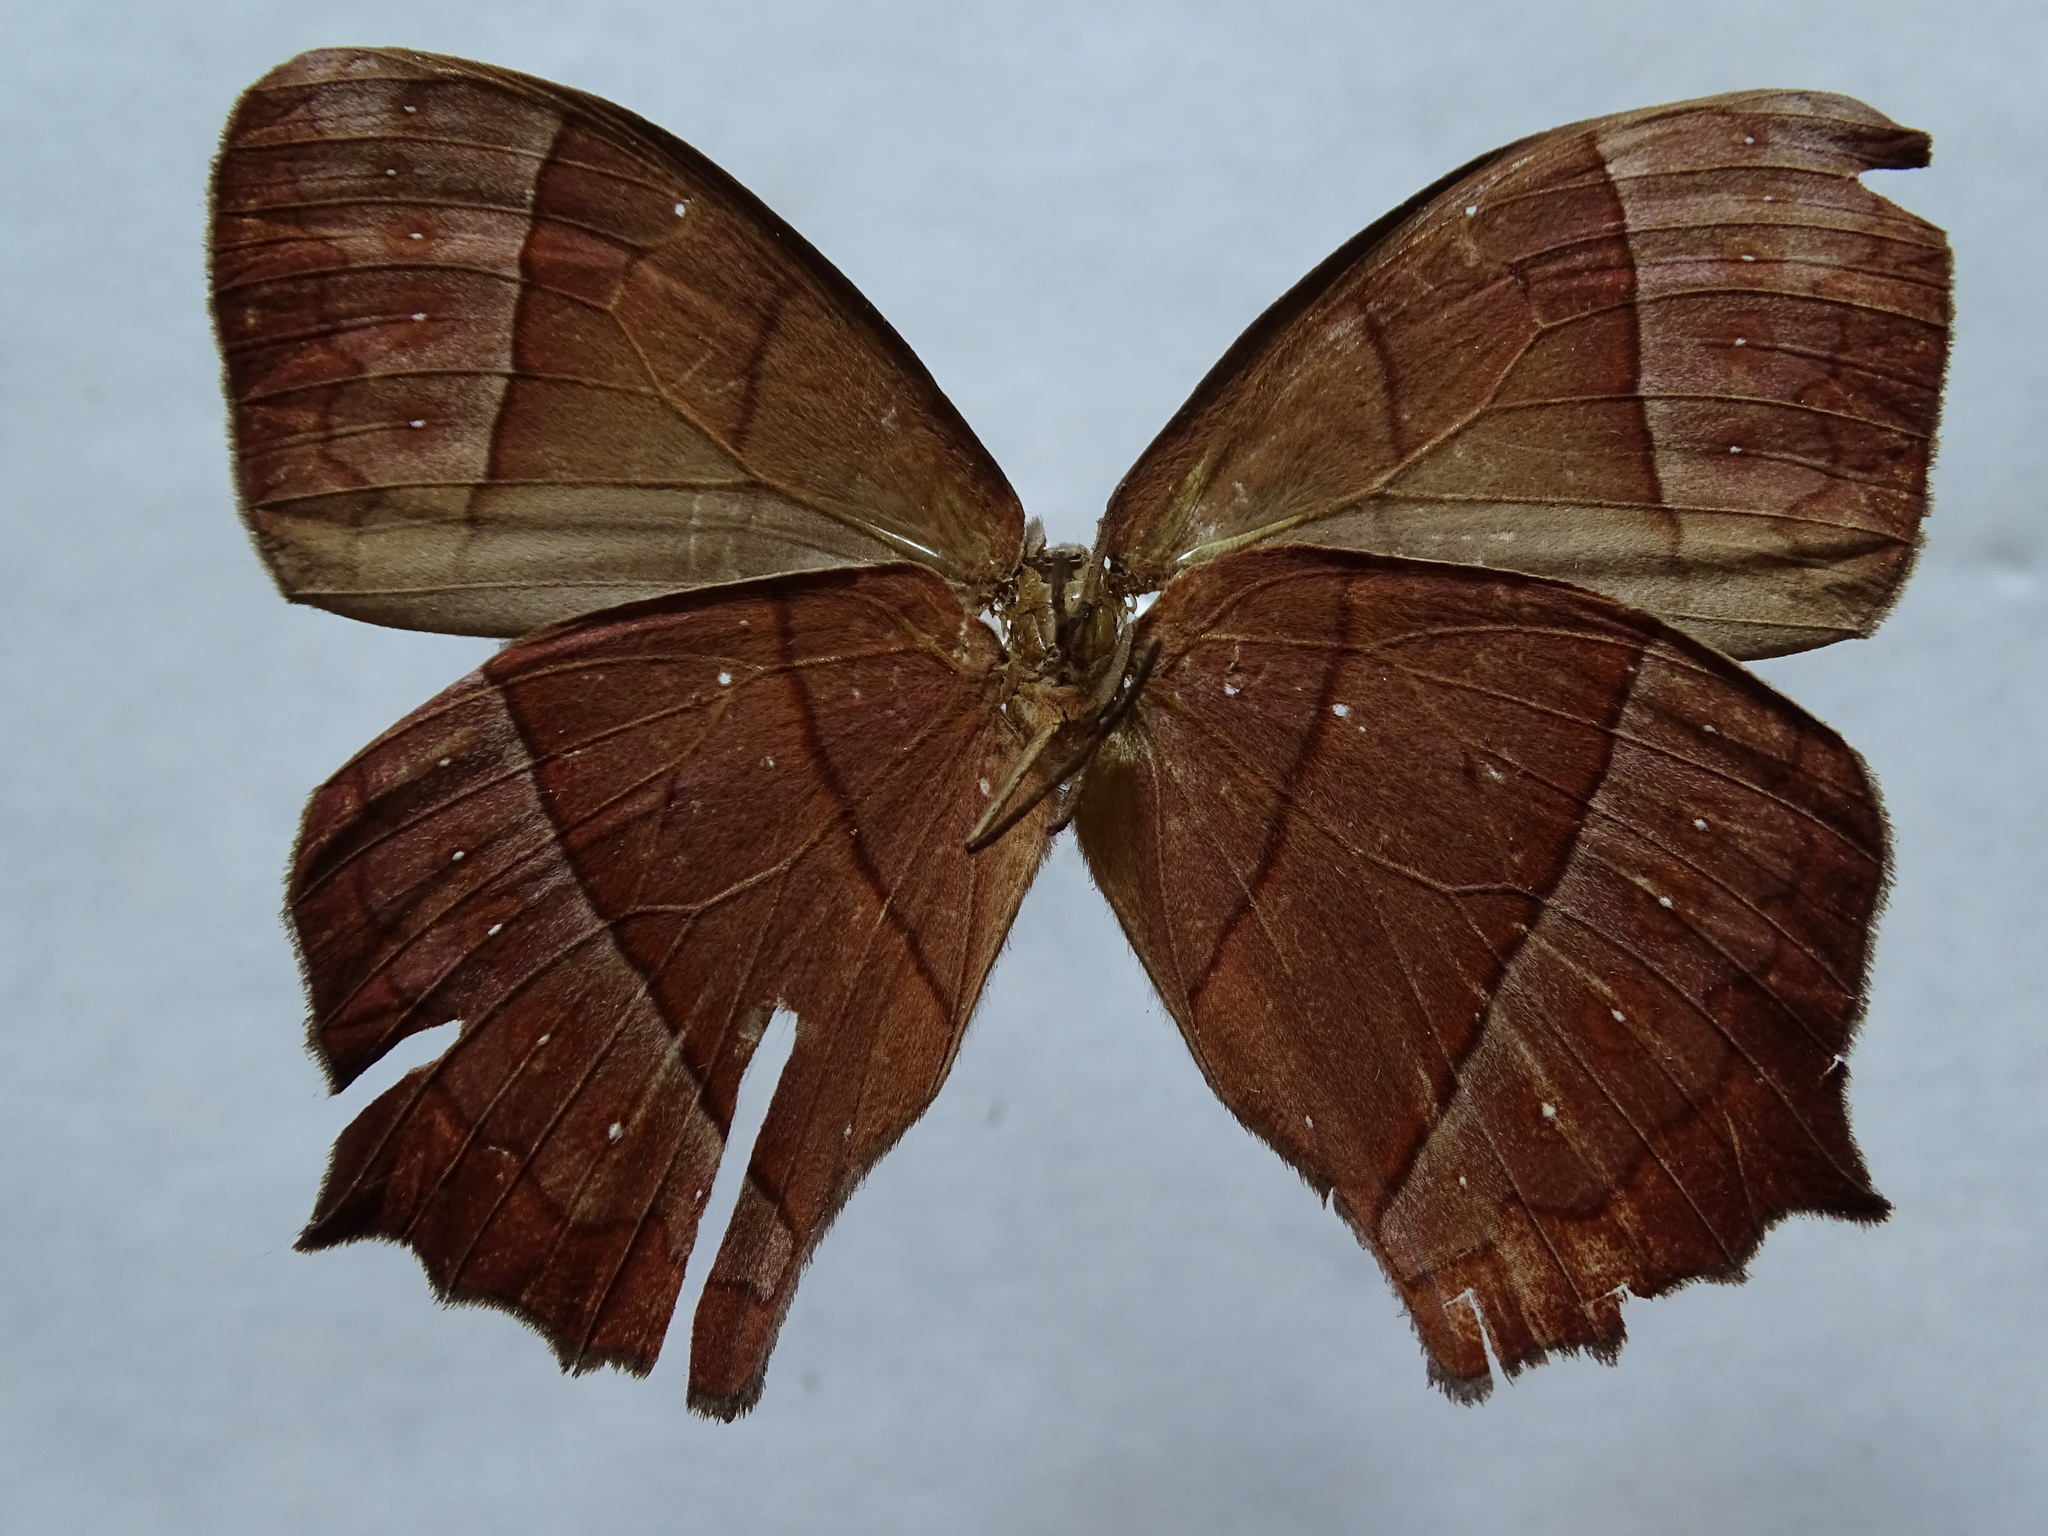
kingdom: Animalia
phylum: Arthropoda
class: Insecta
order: Lepidoptera
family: Nymphalidae
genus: Taygetis
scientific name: Taygetis virgilia
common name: Stub-tailed satyr
